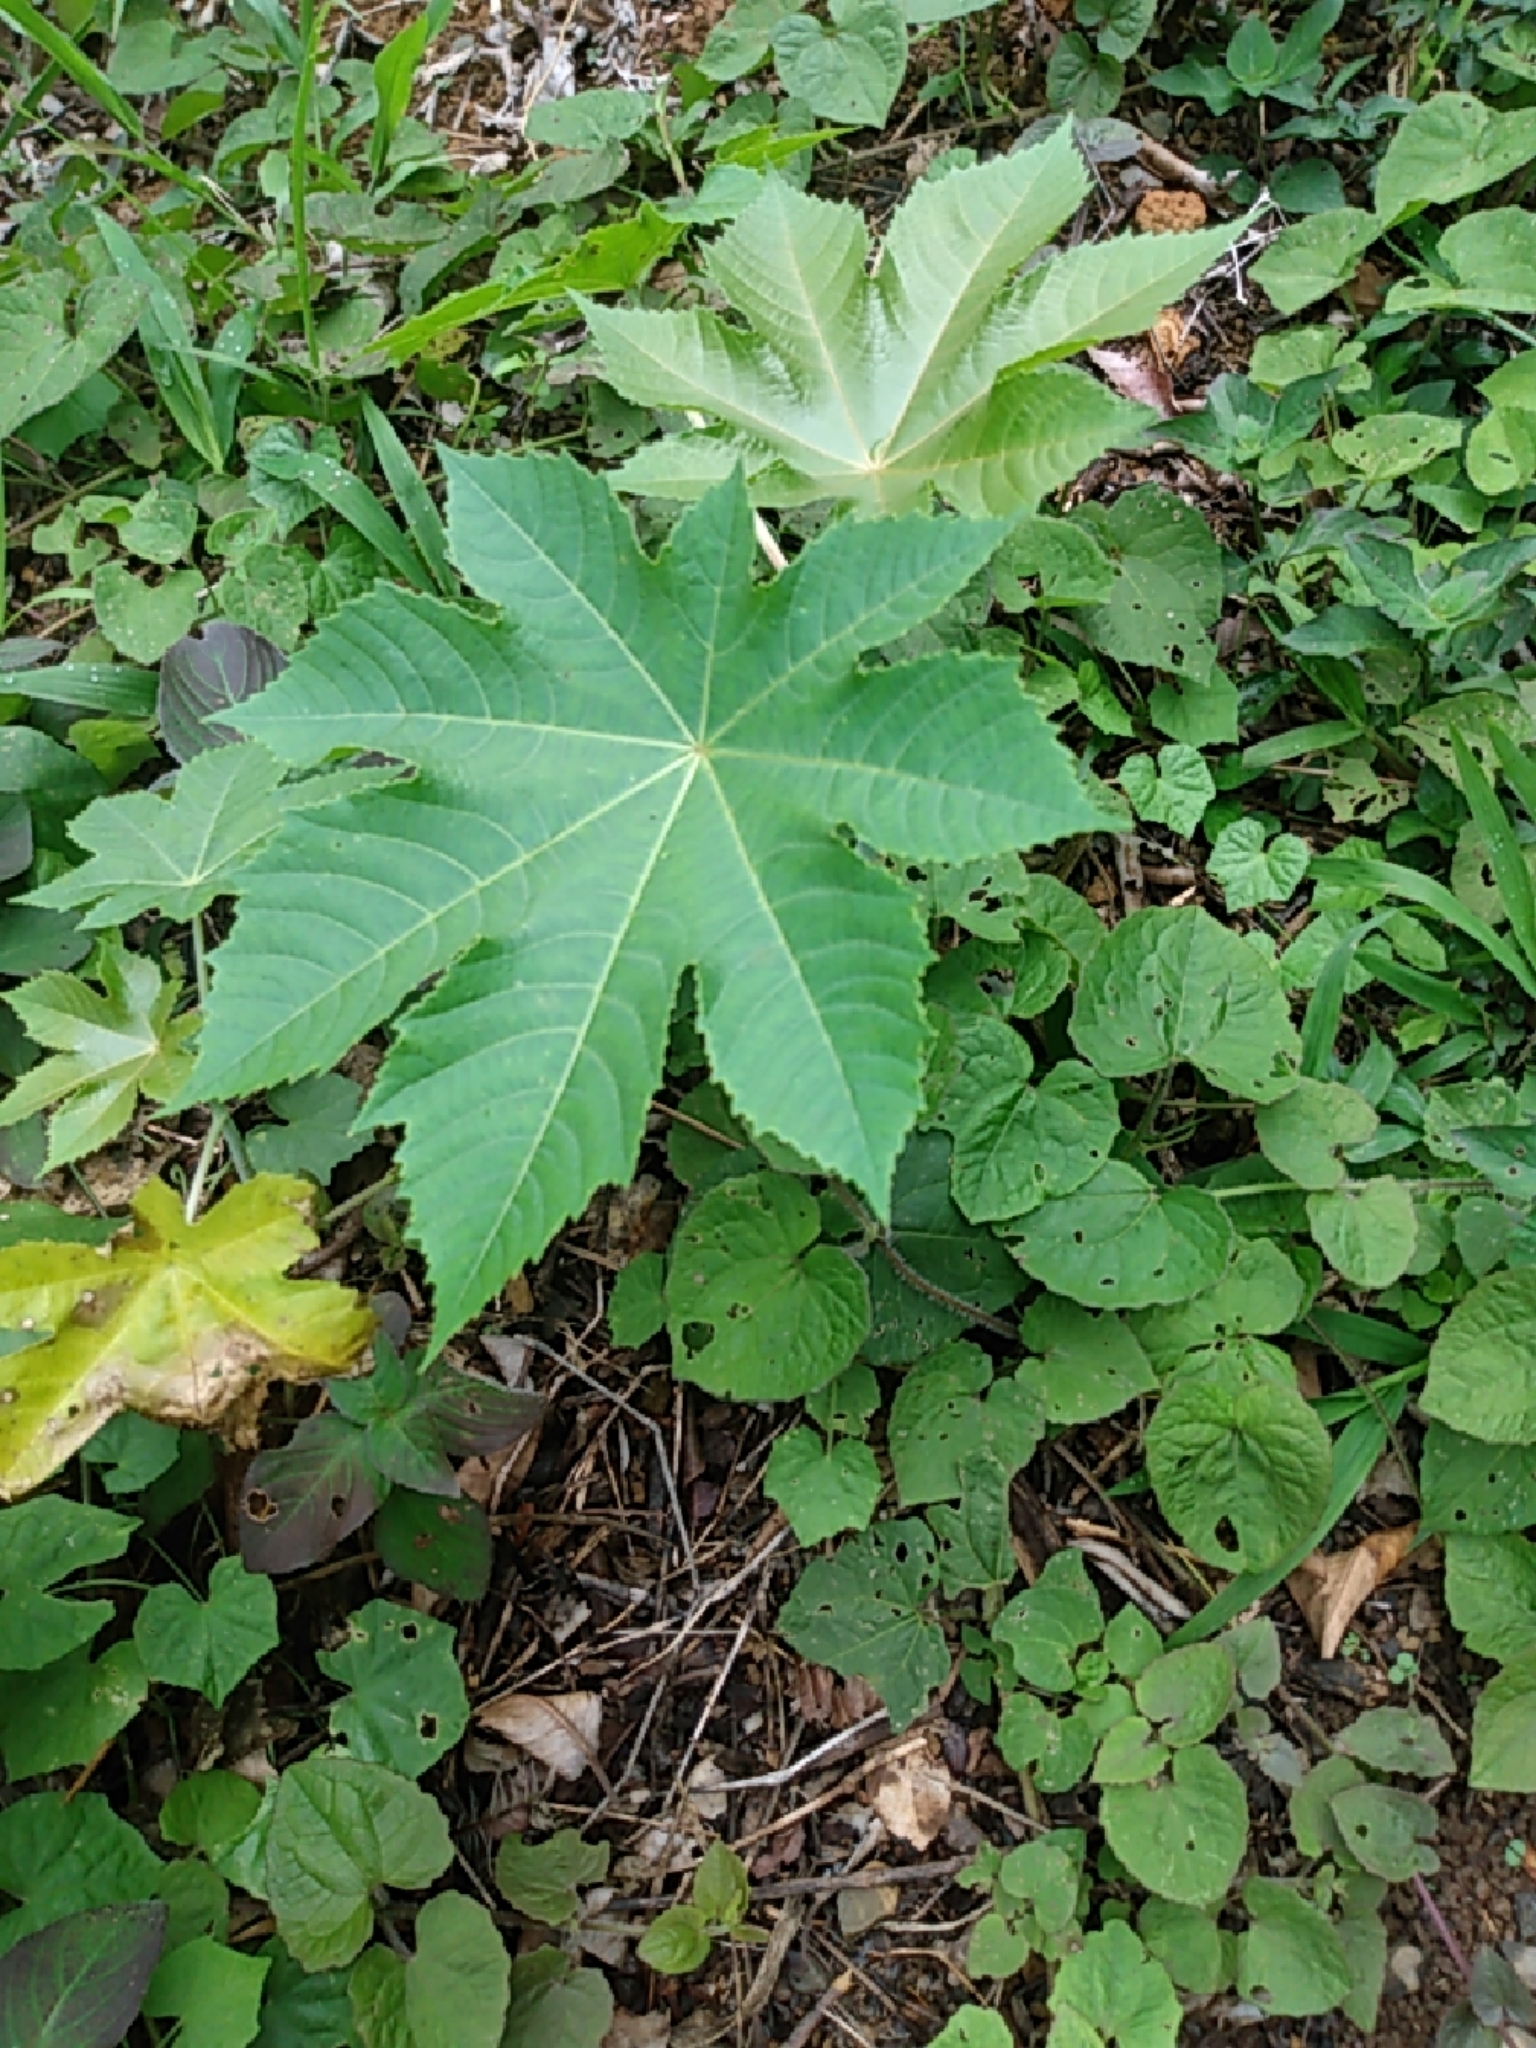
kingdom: Plantae
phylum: Tracheophyta
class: Magnoliopsida
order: Malpighiales
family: Euphorbiaceae
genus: Ricinus
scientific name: Ricinus communis
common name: Castor-oil-plant
